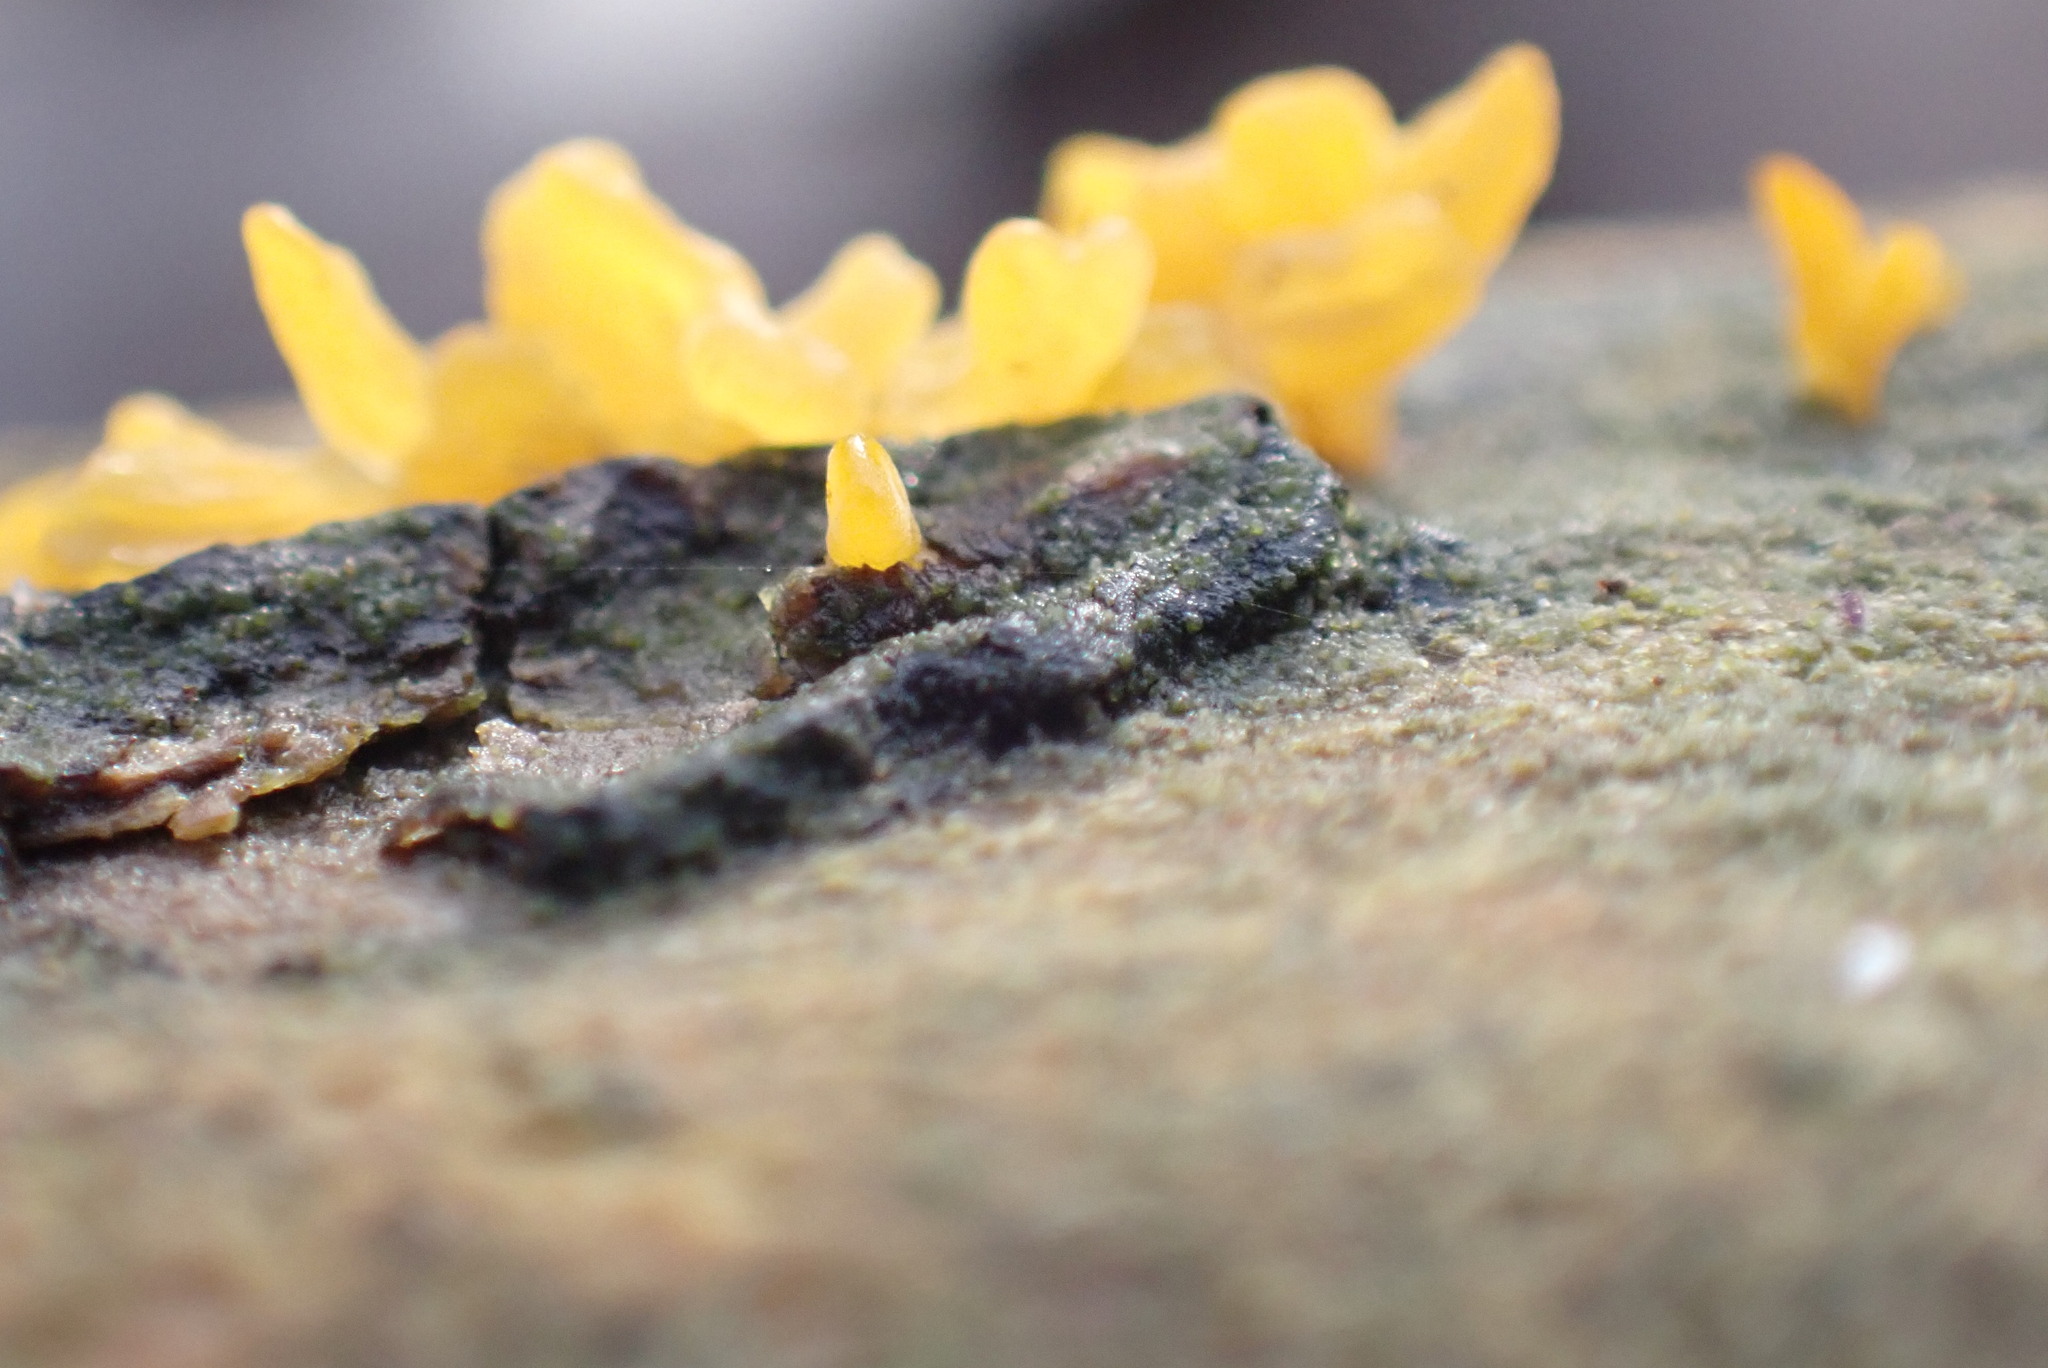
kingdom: Fungi
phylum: Basidiomycota
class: Dacrymycetes
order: Dacrymycetales
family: Dacrymycetaceae
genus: Calocera
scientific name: Calocera cornea
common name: Small stagshorn
